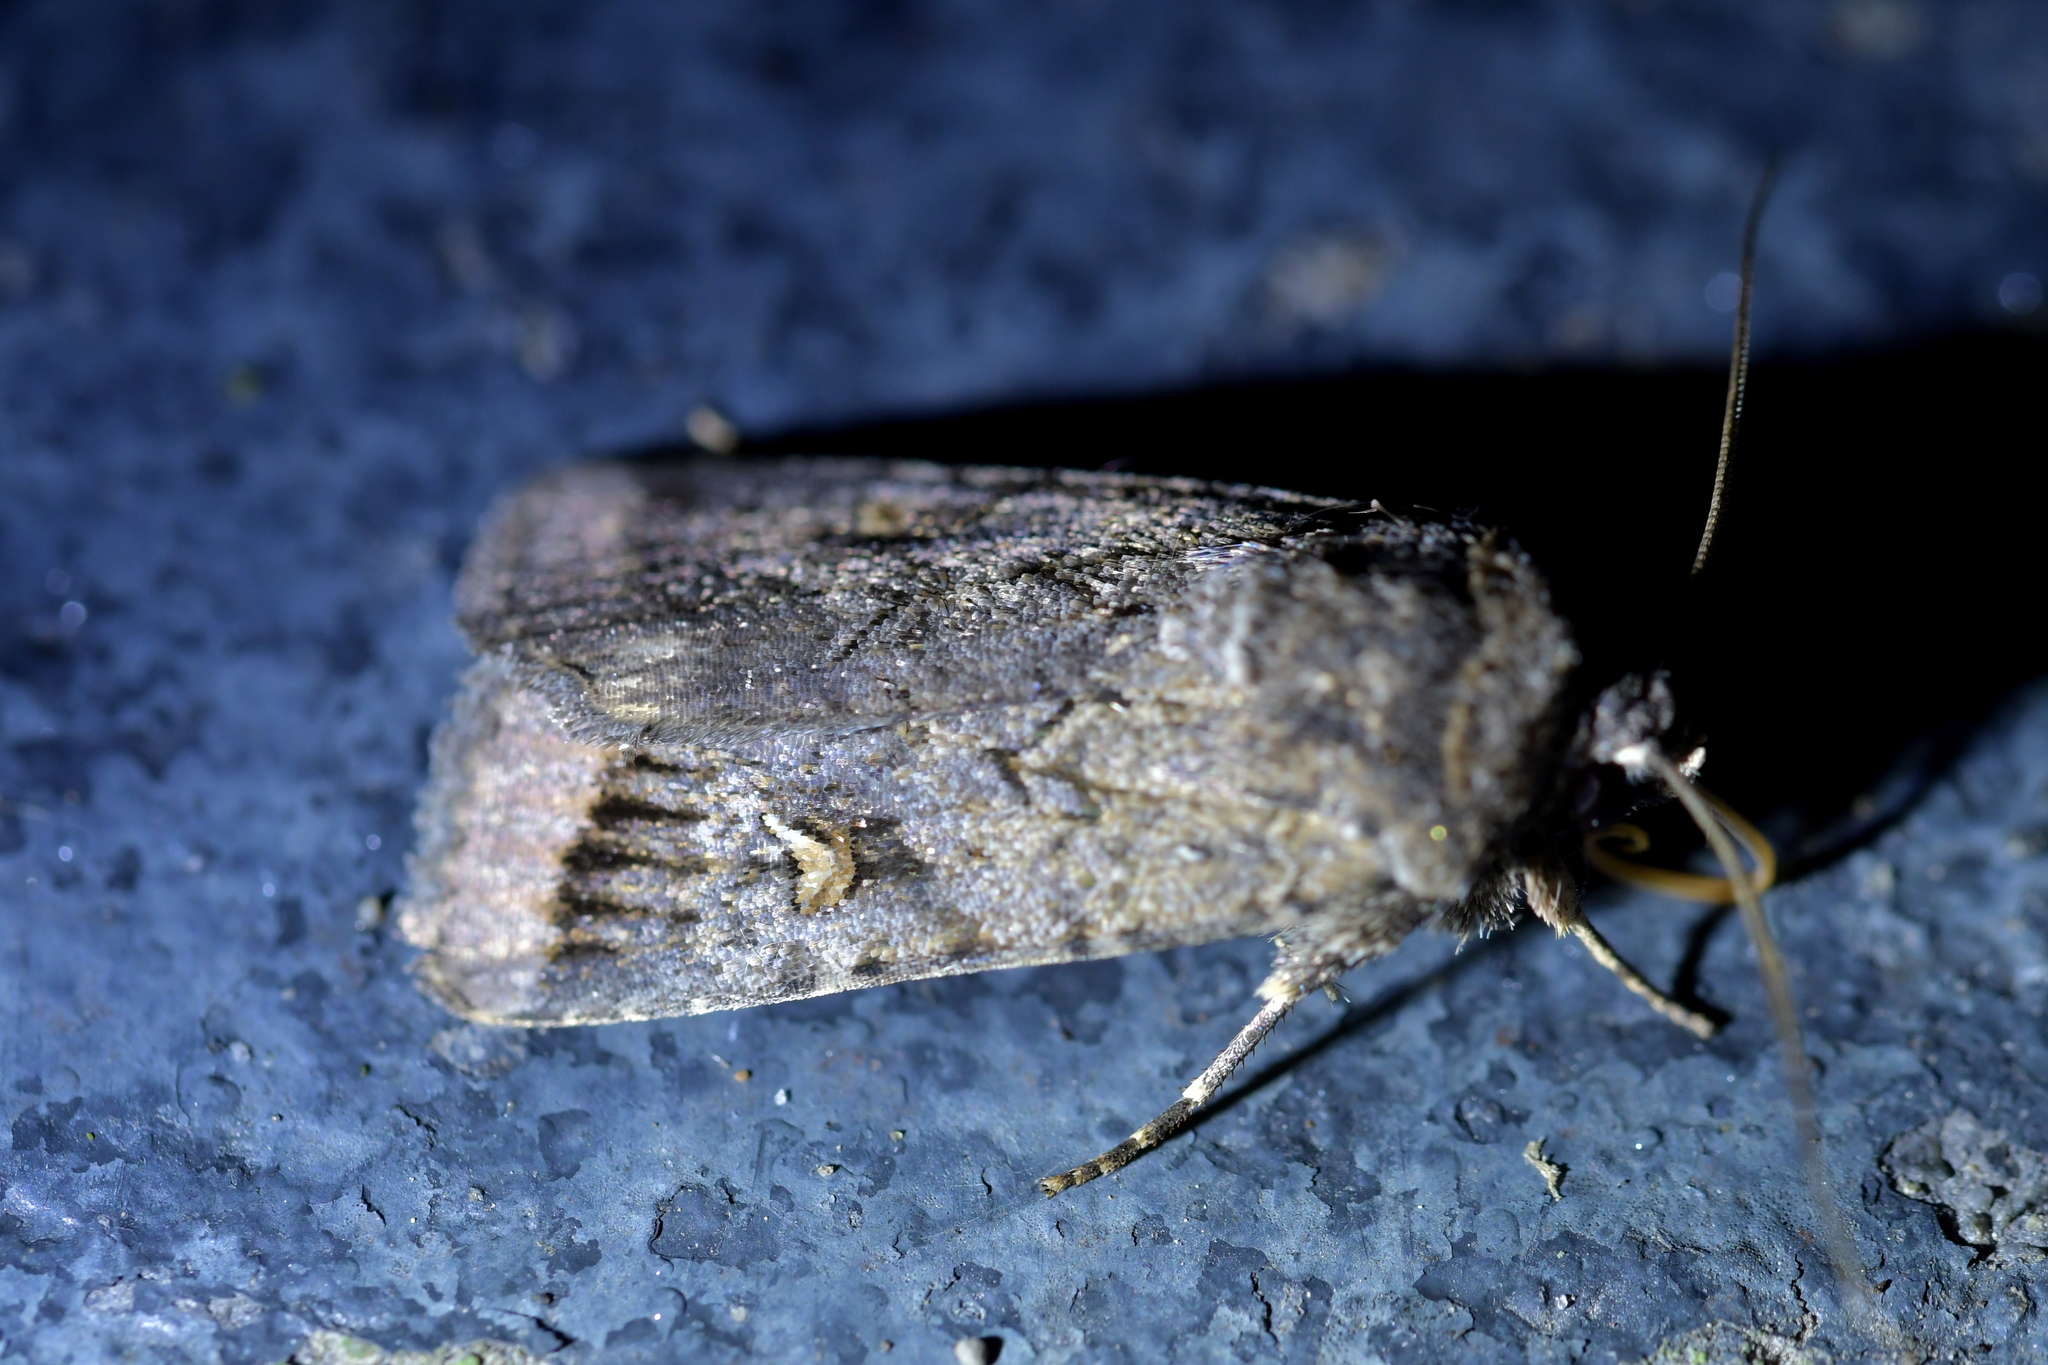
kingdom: Animalia
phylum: Arthropoda
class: Insecta
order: Lepidoptera
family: Noctuidae
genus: Proteuxoa
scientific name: Proteuxoa comma
